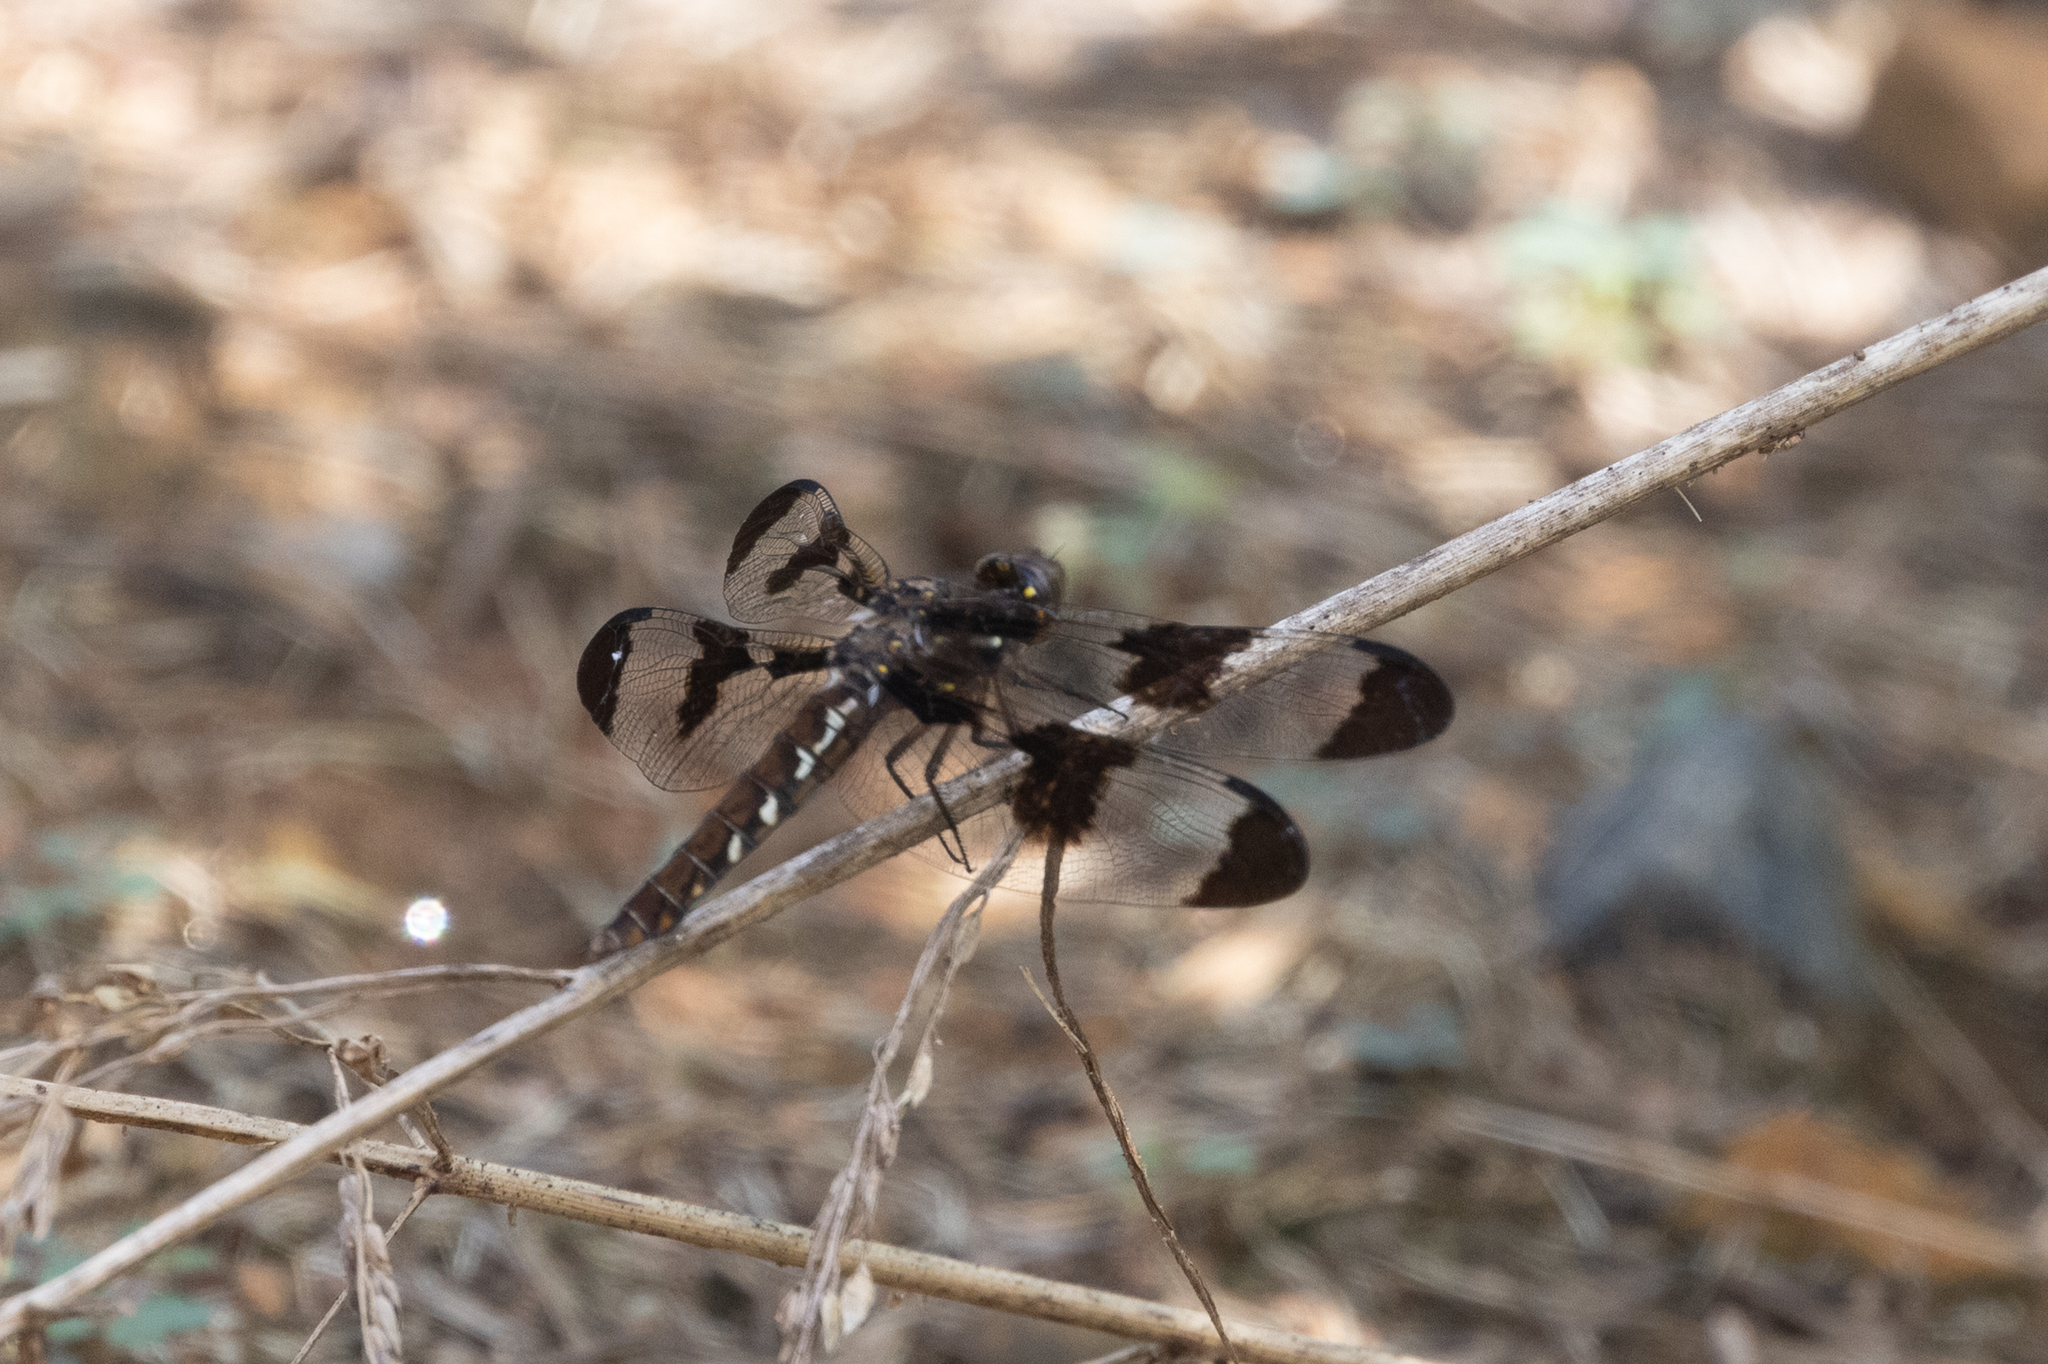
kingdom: Animalia
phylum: Arthropoda
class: Insecta
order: Odonata
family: Libellulidae
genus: Plathemis
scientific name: Plathemis lydia
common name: Common whitetail
